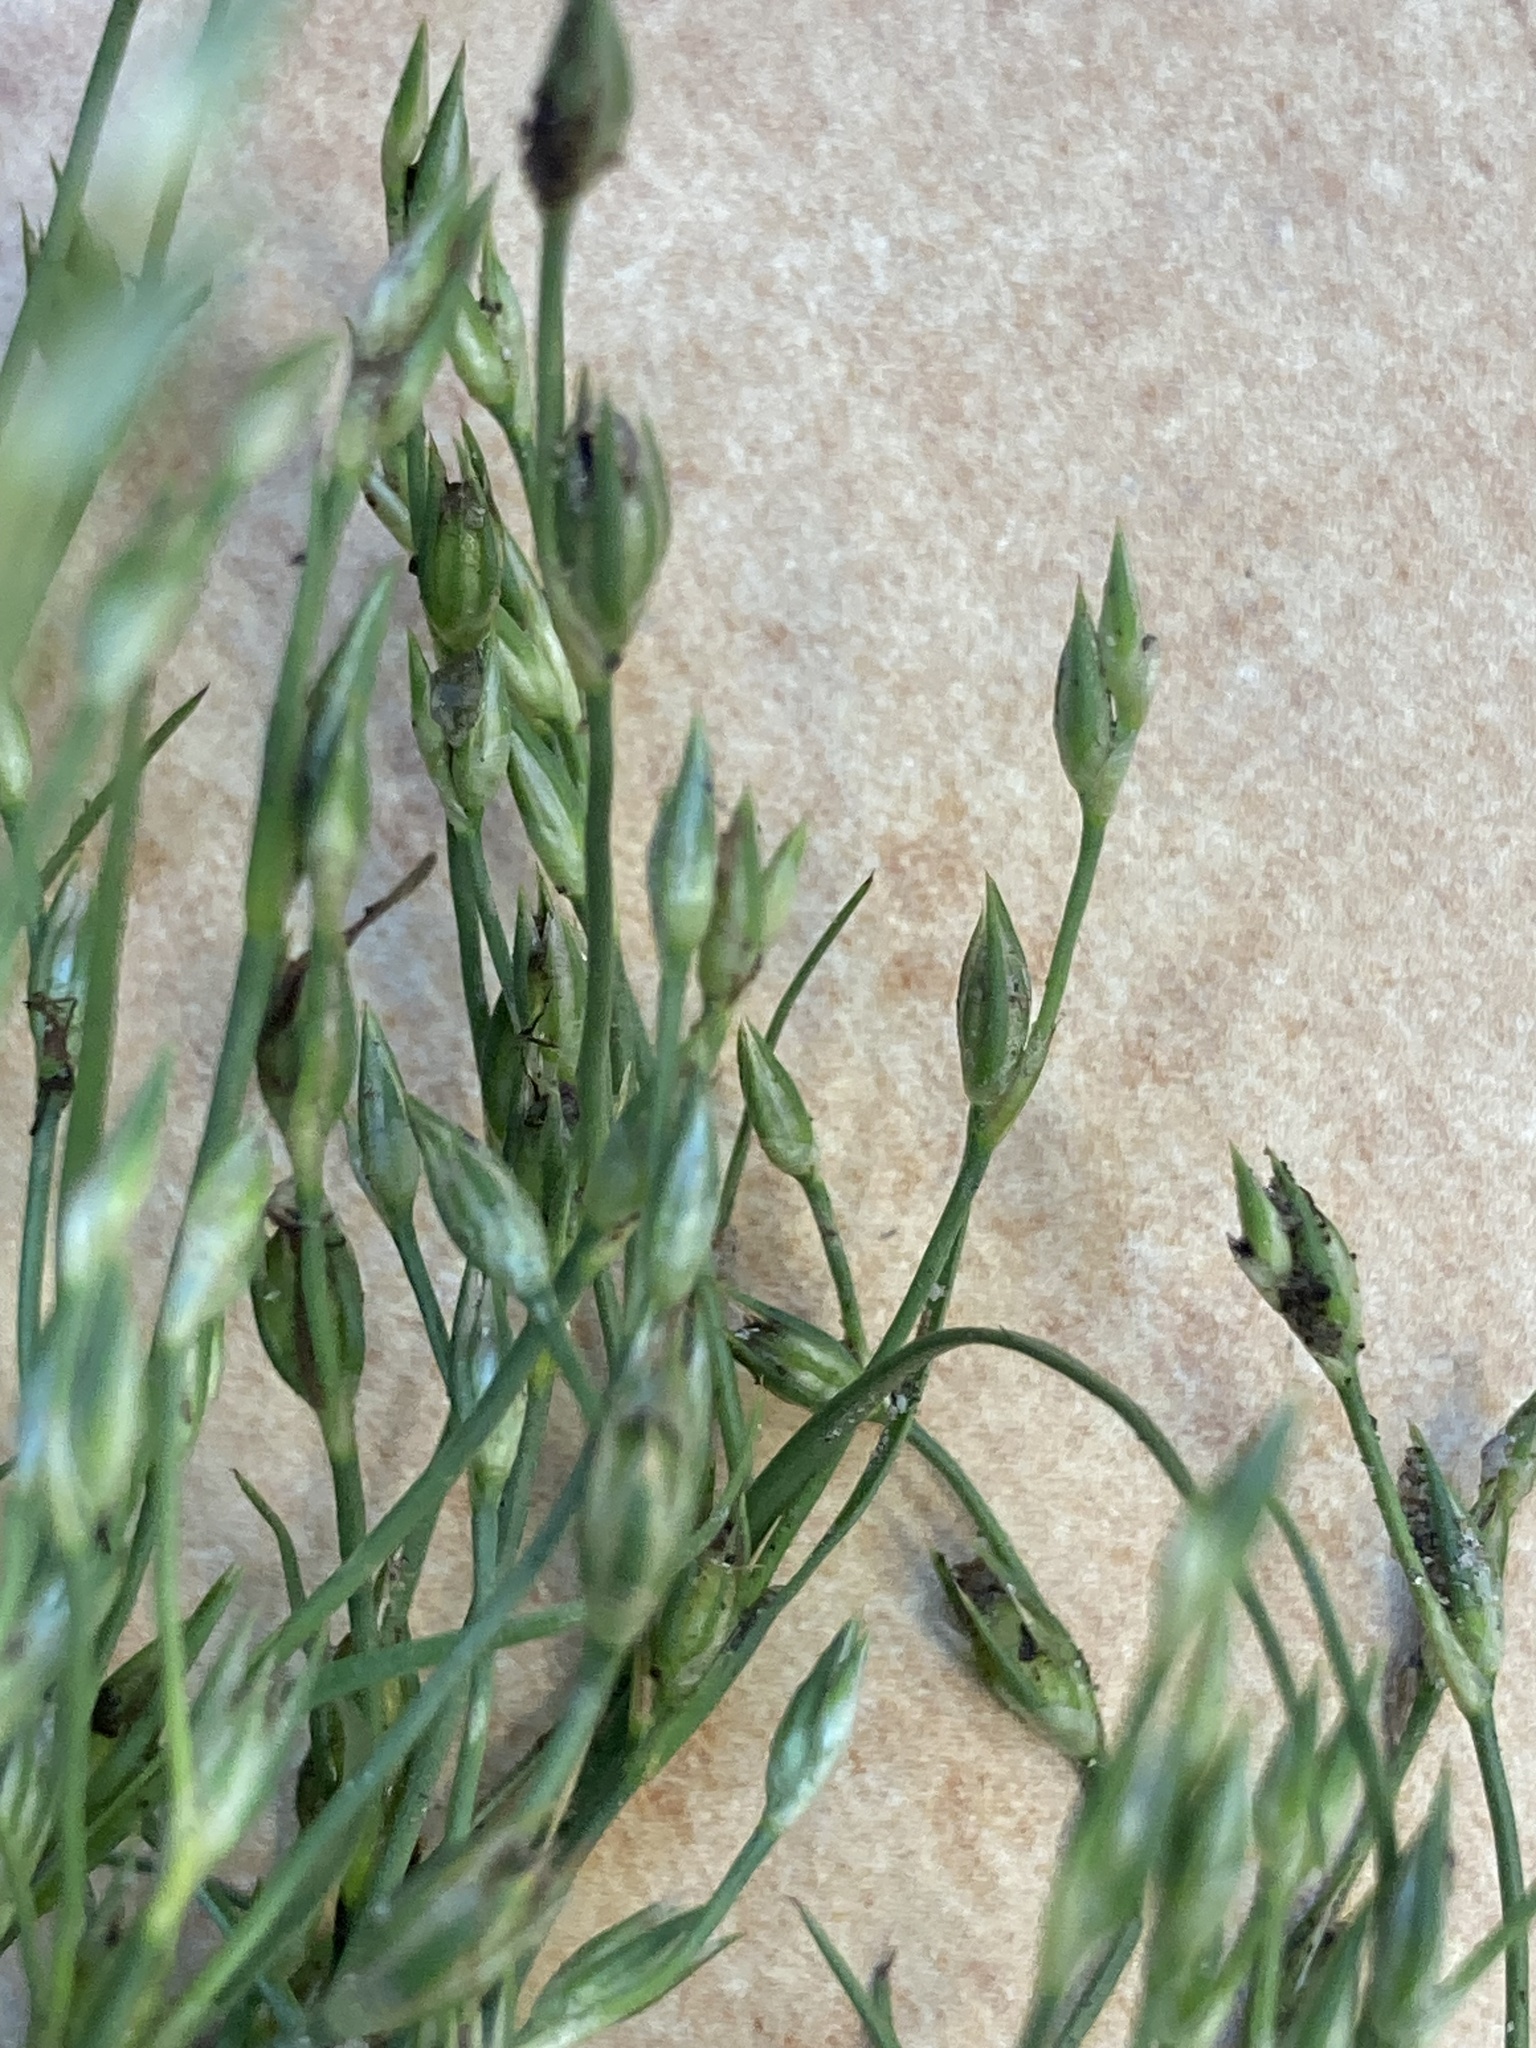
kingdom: Plantae
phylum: Tracheophyta
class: Liliopsida
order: Poales
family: Juncaceae
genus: Juncus
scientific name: Juncus bufonius
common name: Toad rush
